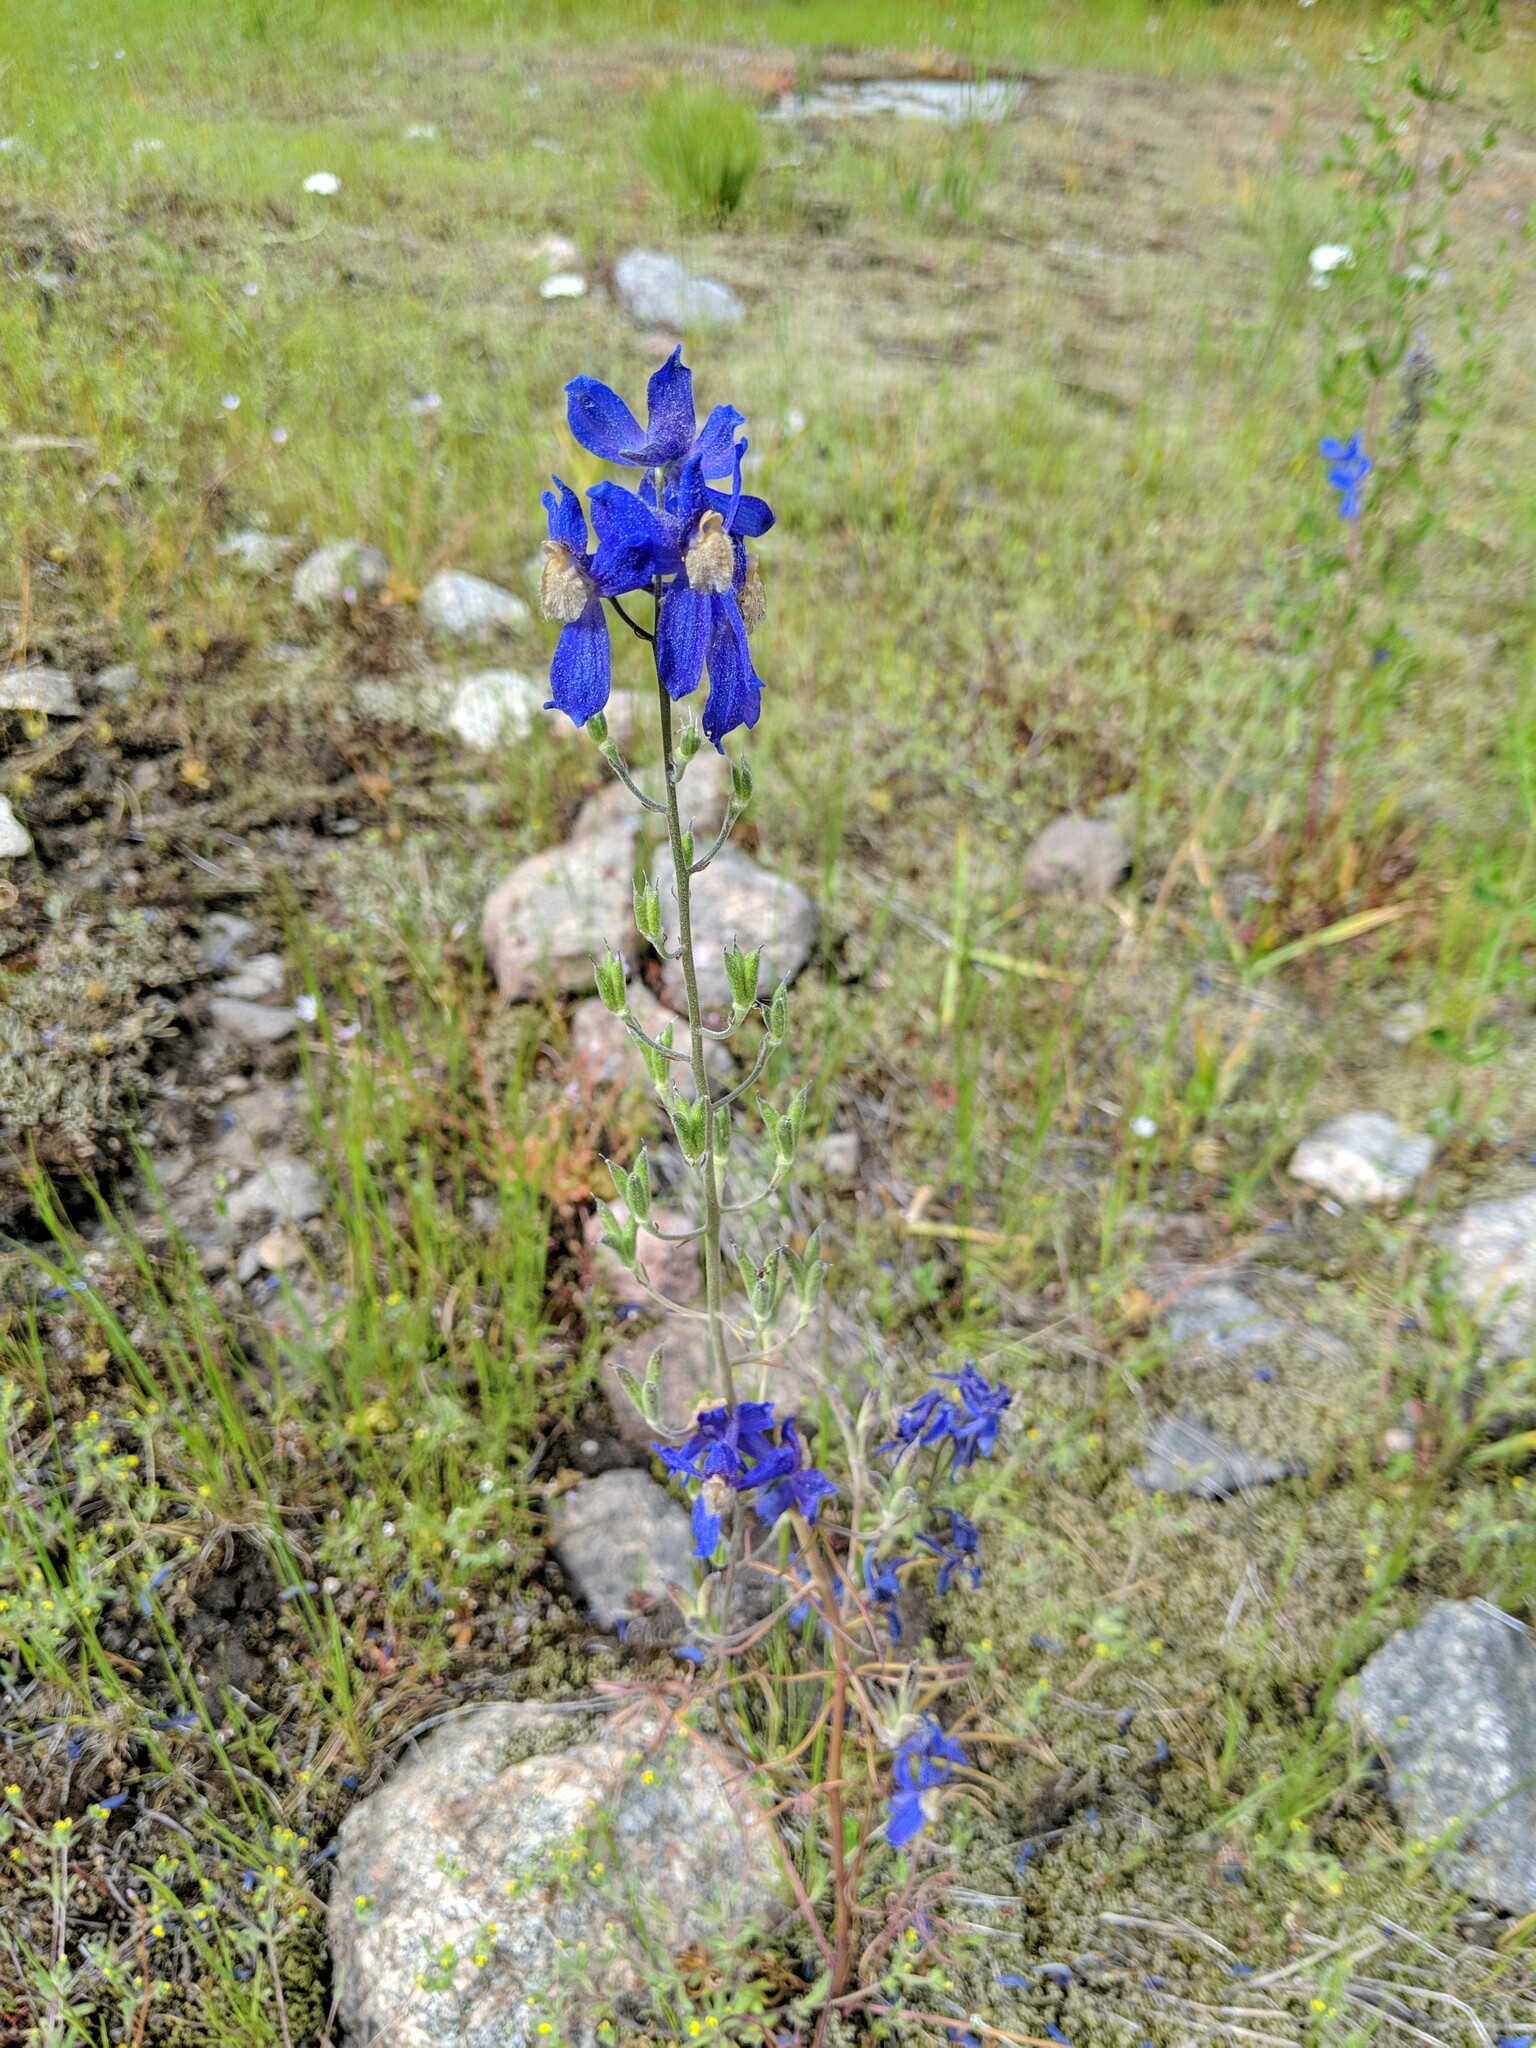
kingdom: Plantae
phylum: Tracheophyta
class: Magnoliopsida
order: Ranunculales
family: Ranunculaceae
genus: Delphinium
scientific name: Delphinium sutherlandii
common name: Sutherland's larkspur
